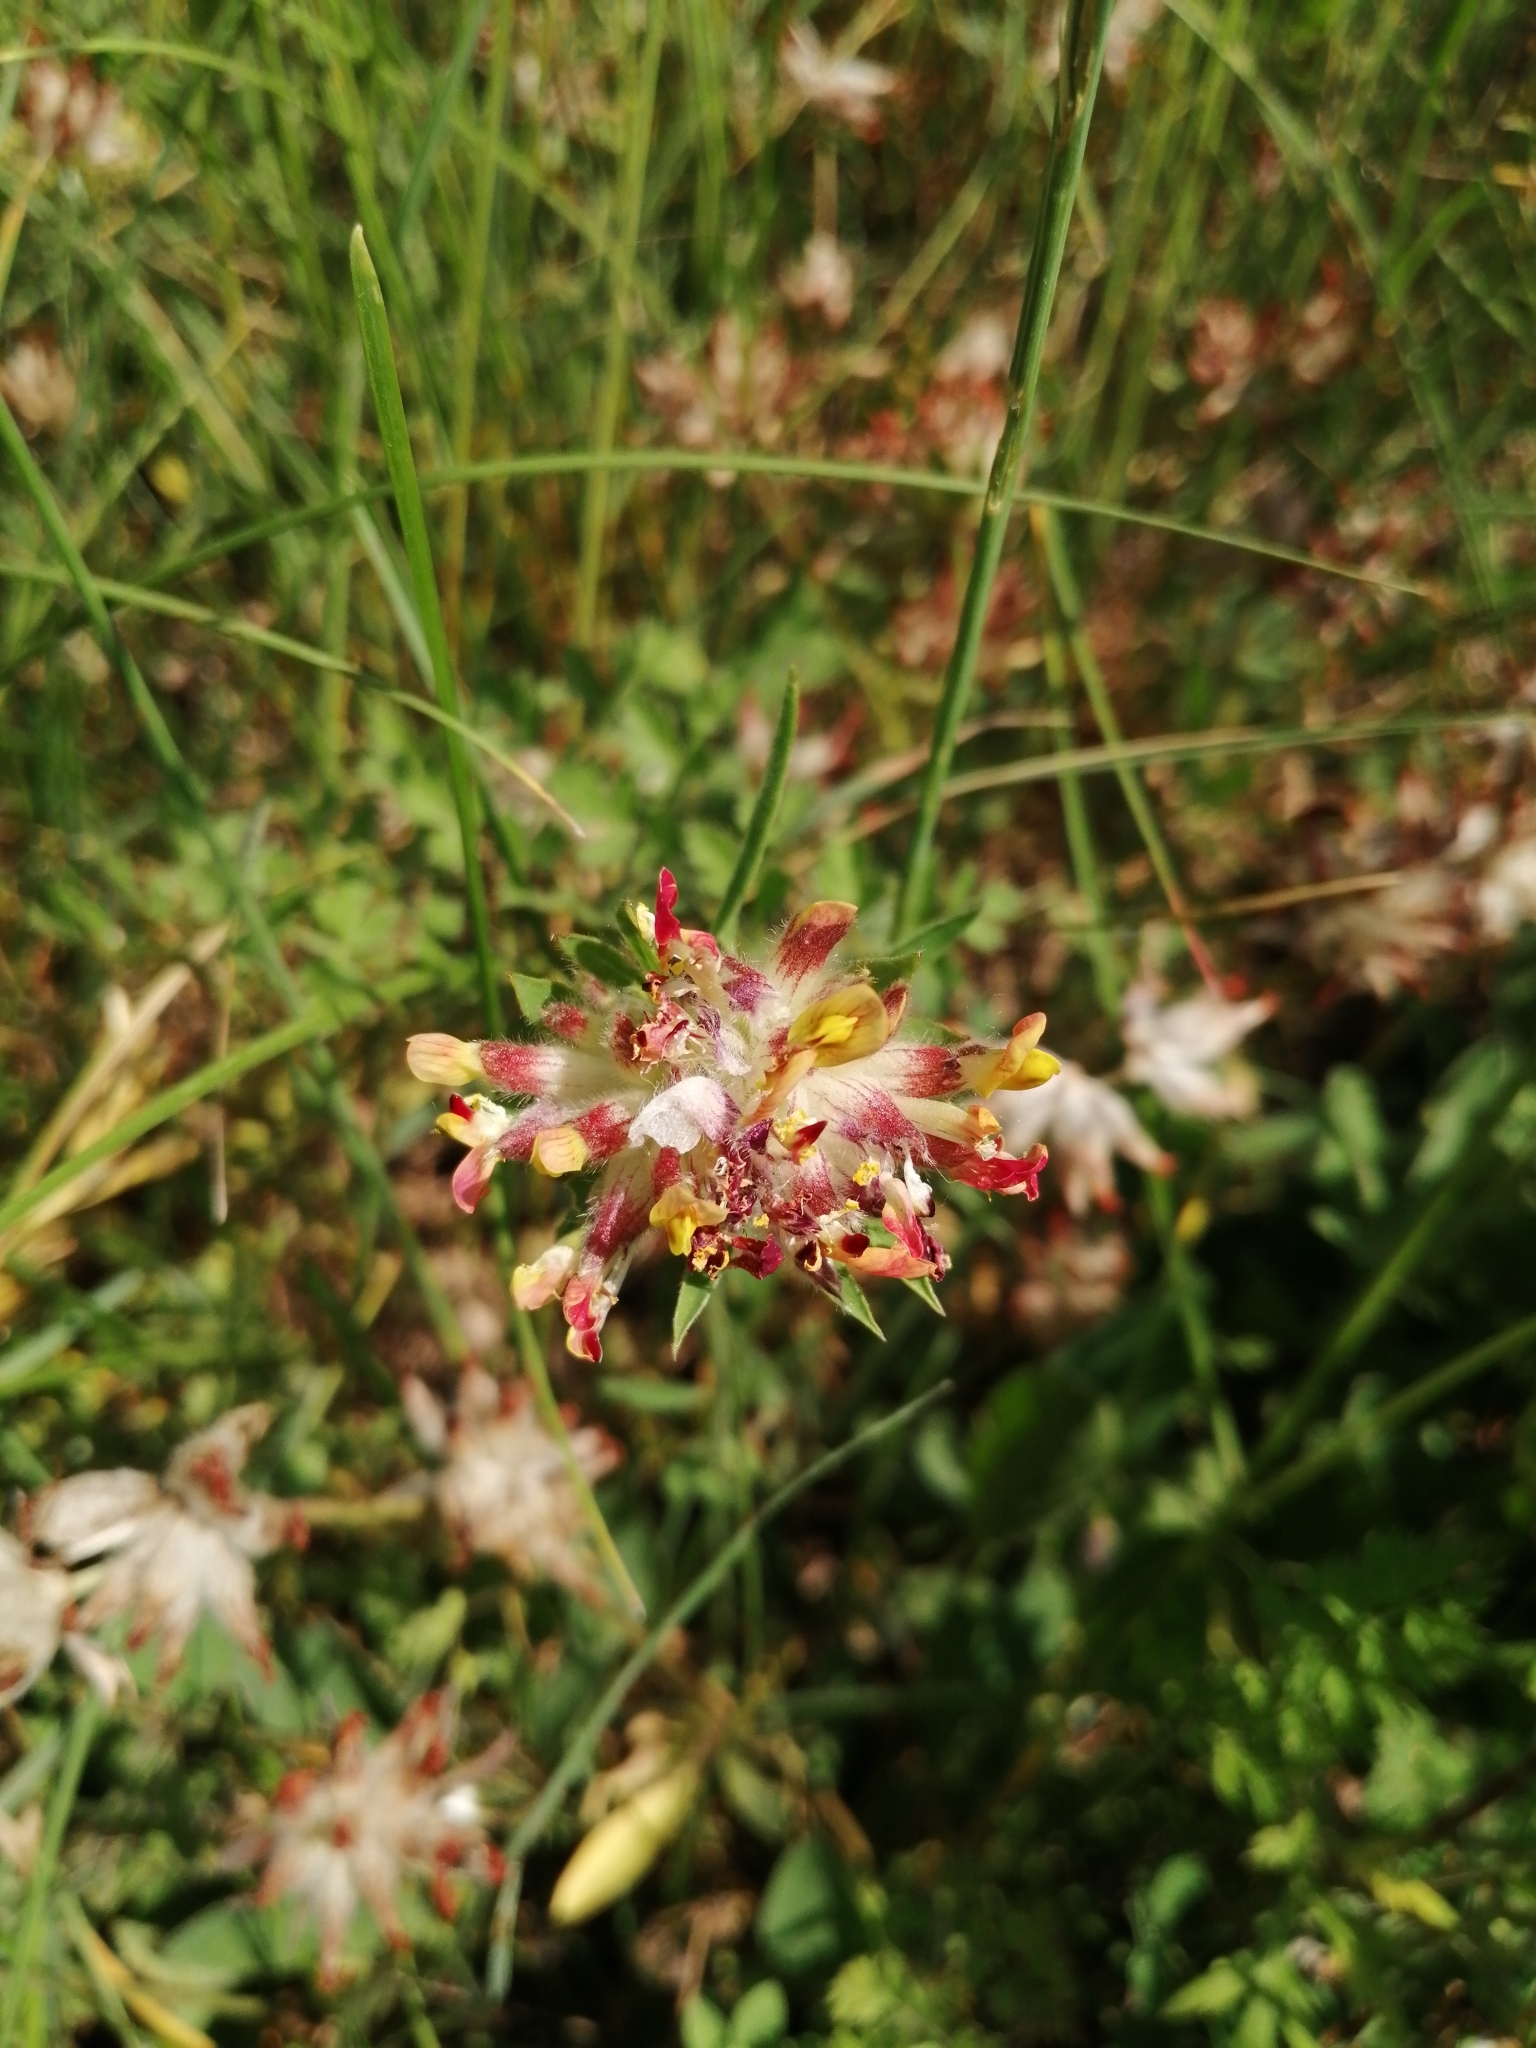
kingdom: Plantae
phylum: Tracheophyta
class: Magnoliopsida
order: Fabales
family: Fabaceae
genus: Anthyllis
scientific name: Anthyllis vulneraria
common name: Kidney vetch
